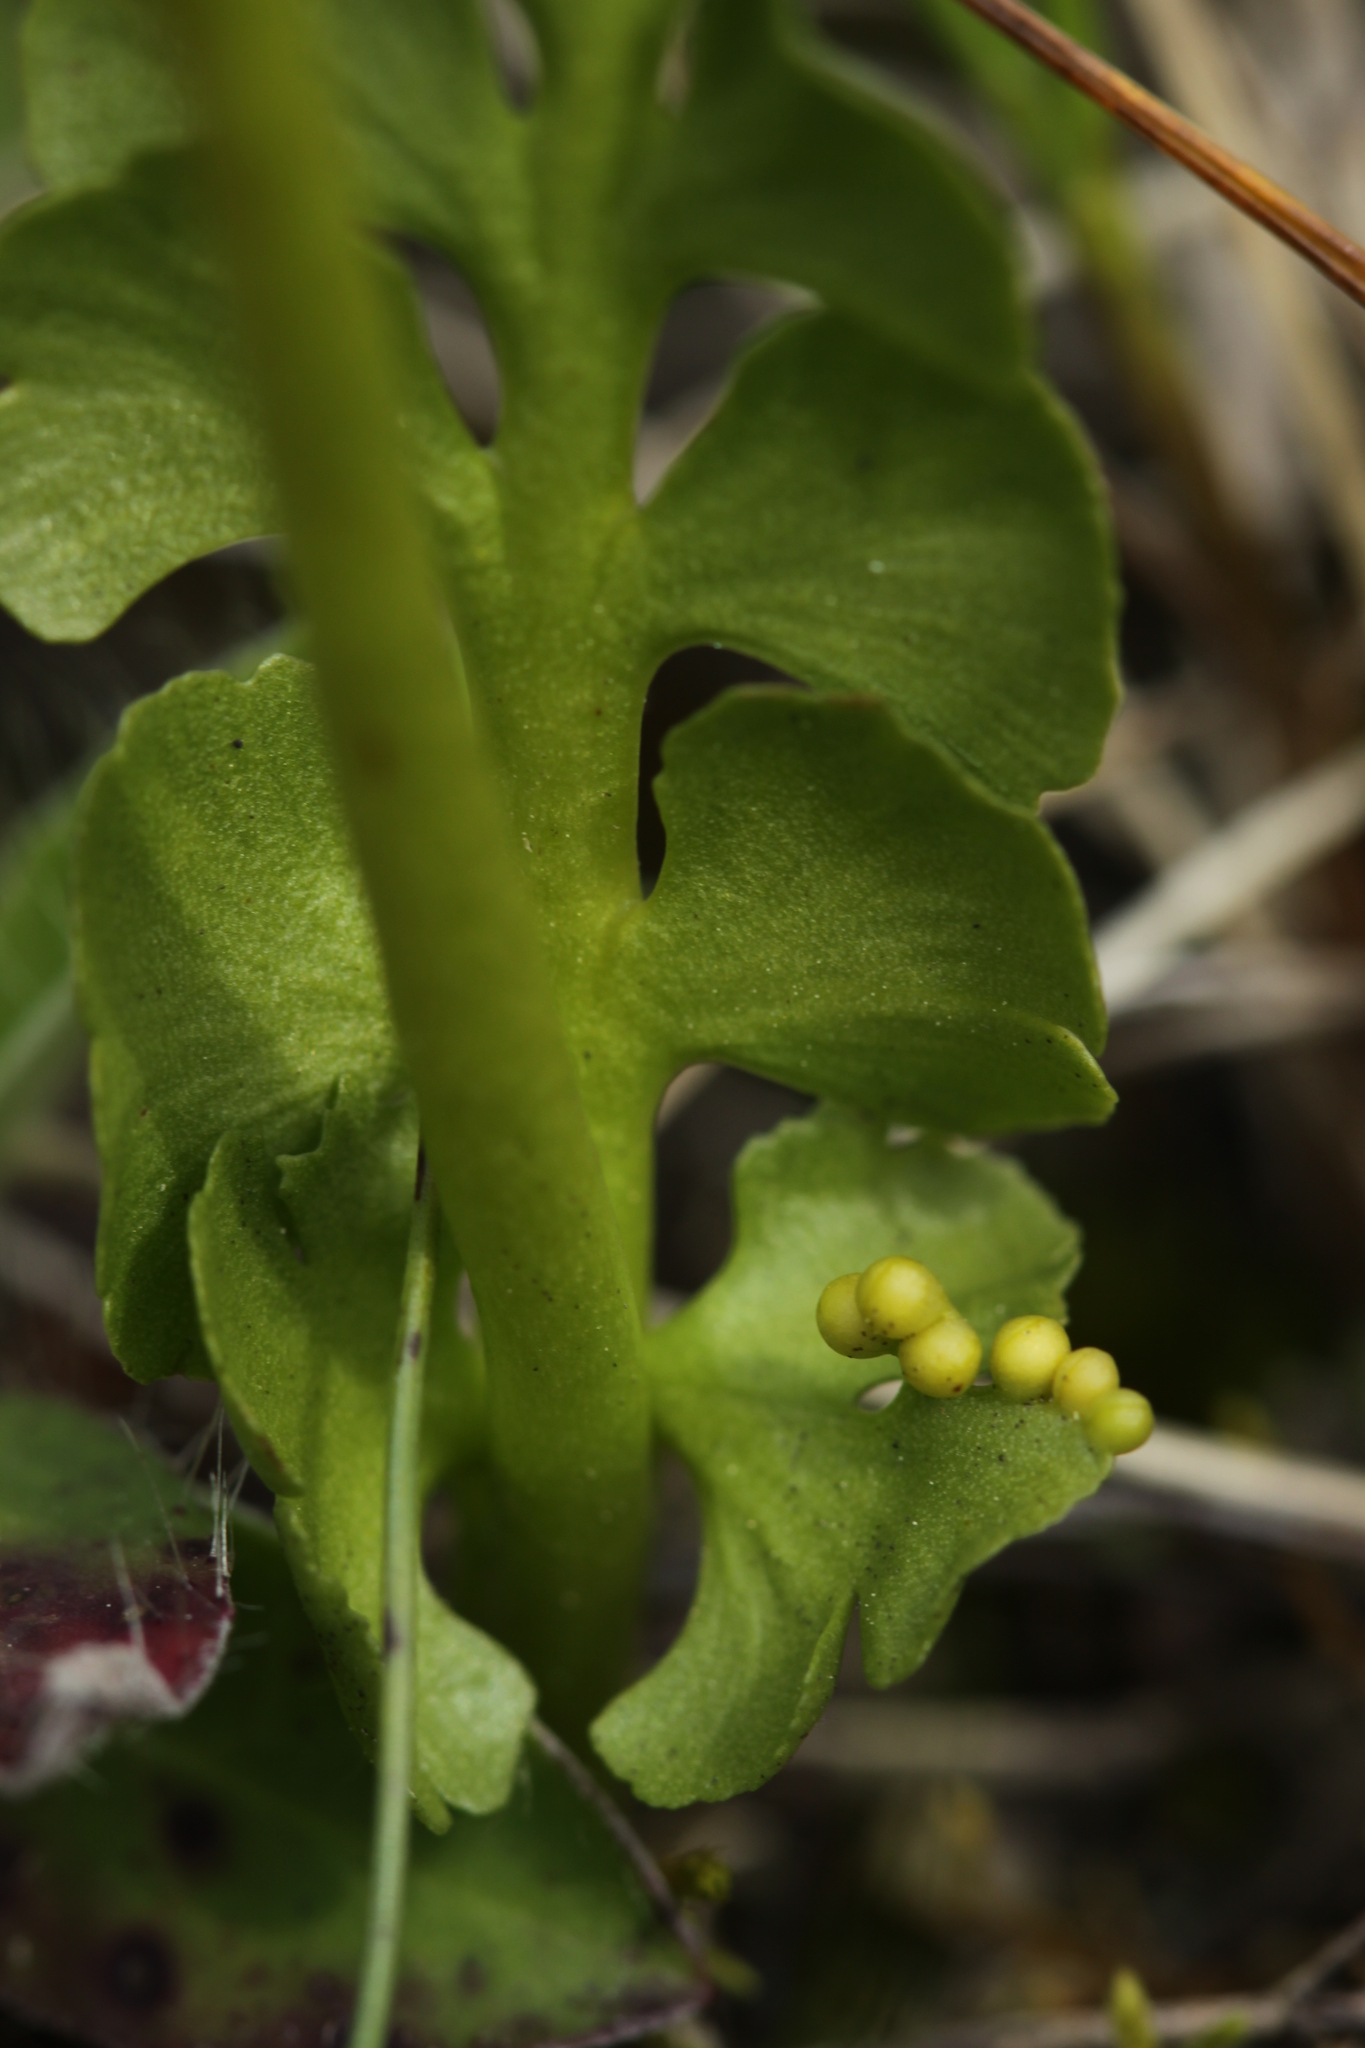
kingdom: Plantae
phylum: Tracheophyta
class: Polypodiopsida
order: Ophioglossales
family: Ophioglossaceae
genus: Botrychium
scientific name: Botrychium lunaria
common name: Moonwort
